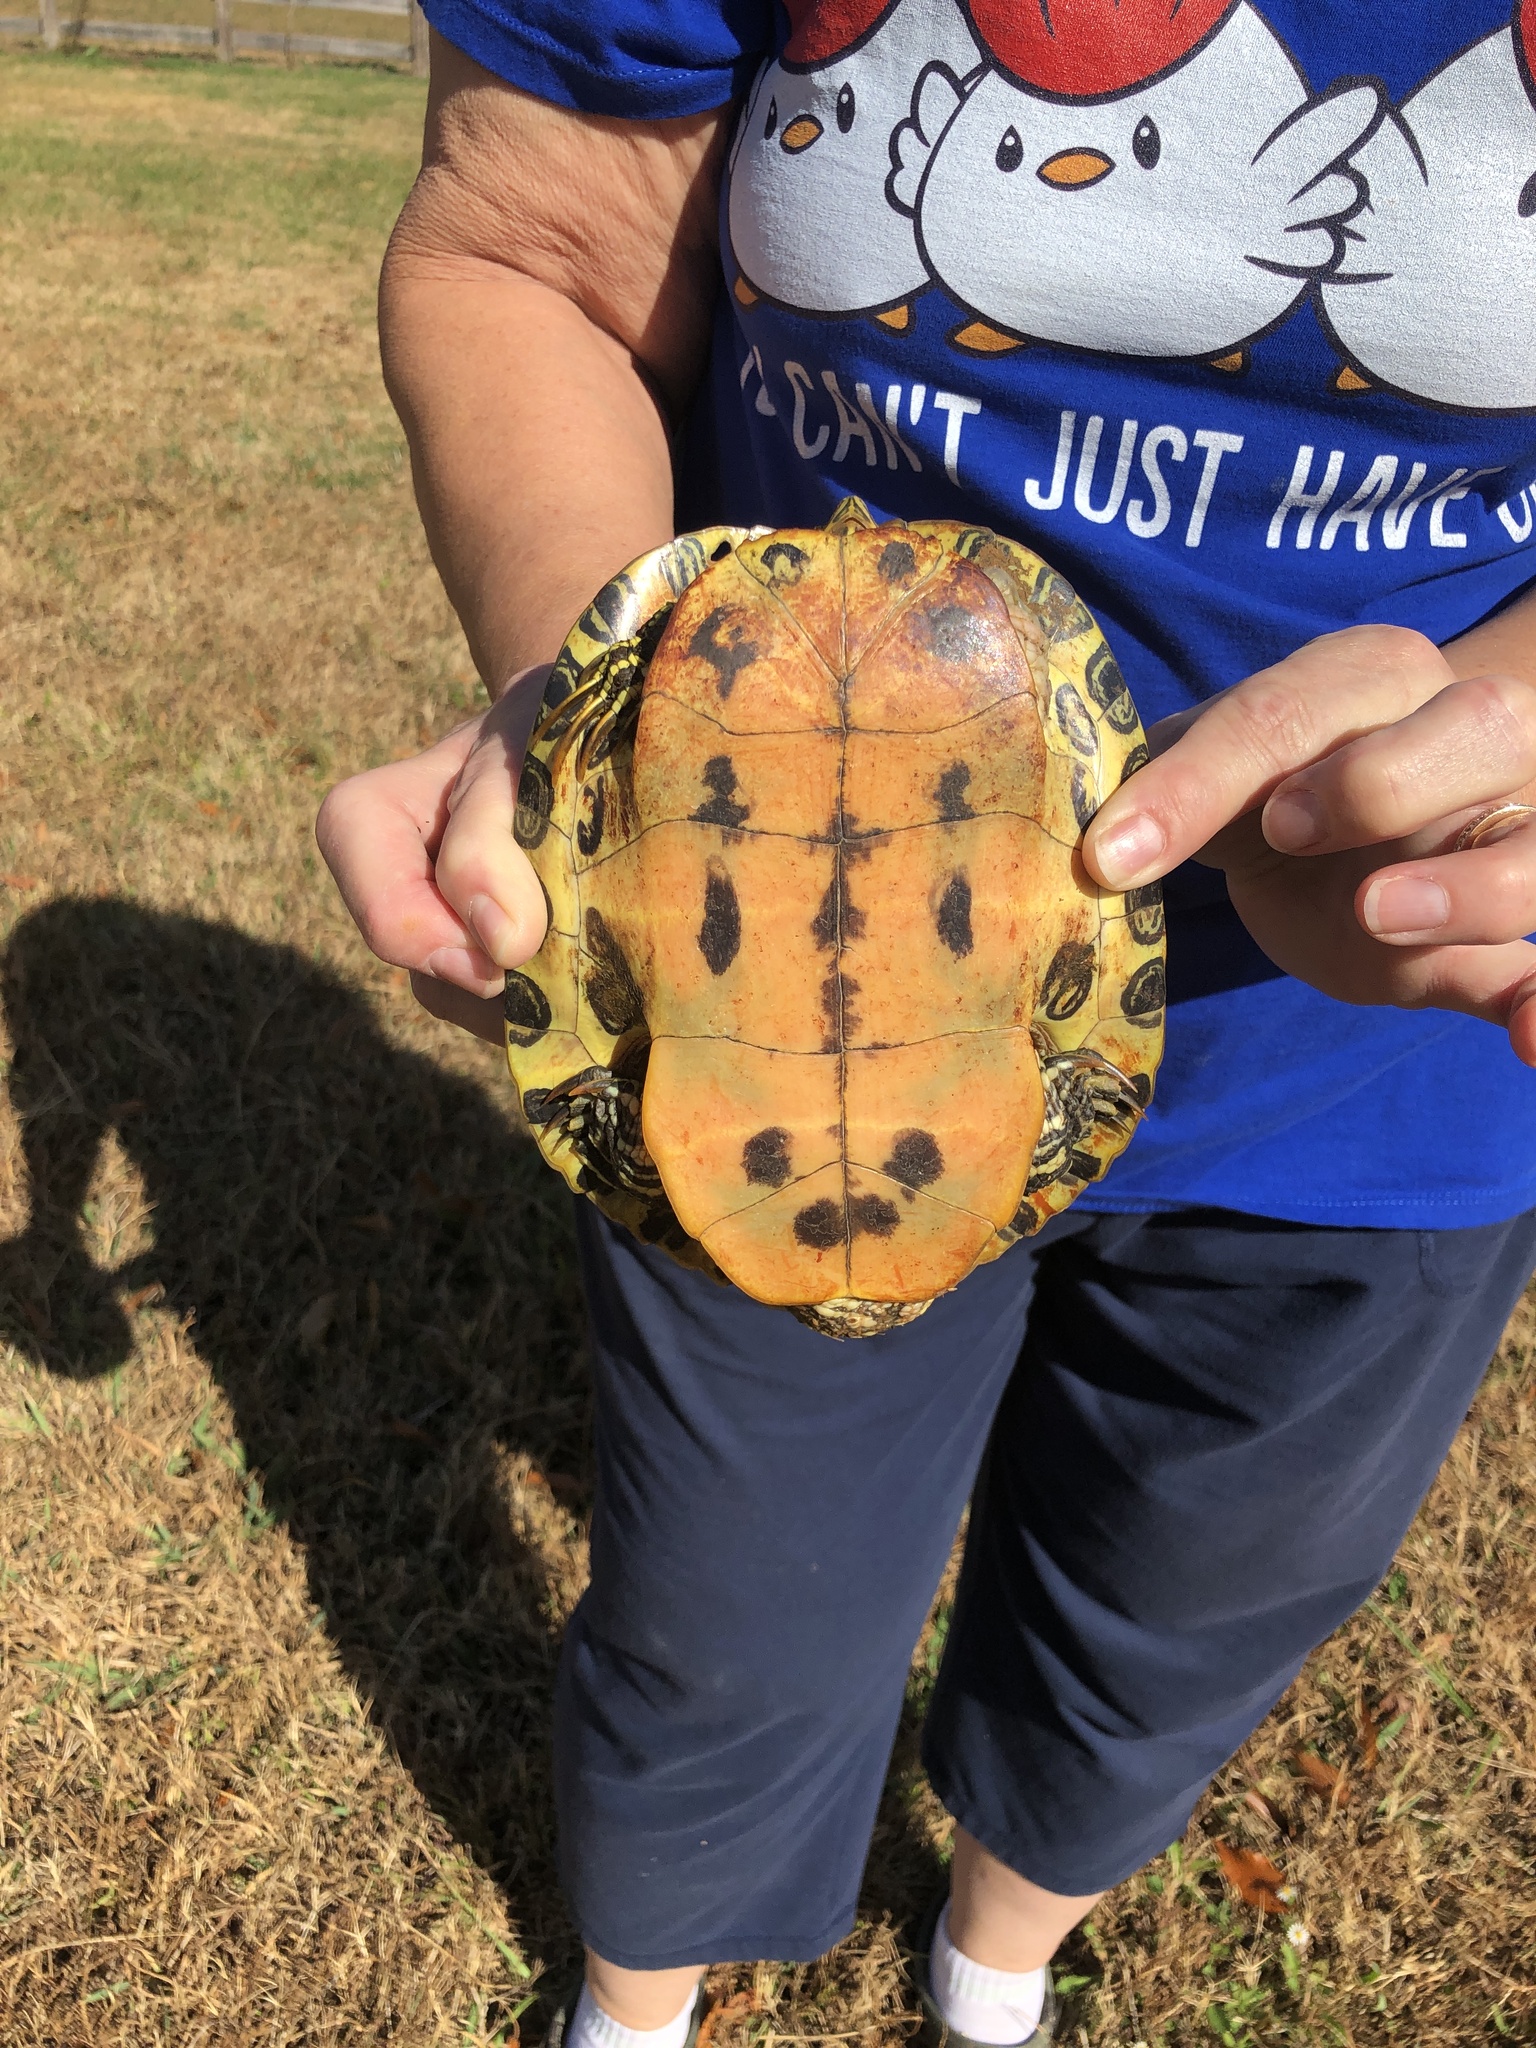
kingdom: Animalia
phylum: Chordata
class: Testudines
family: Emydidae
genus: Trachemys
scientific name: Trachemys scripta
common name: Slider
